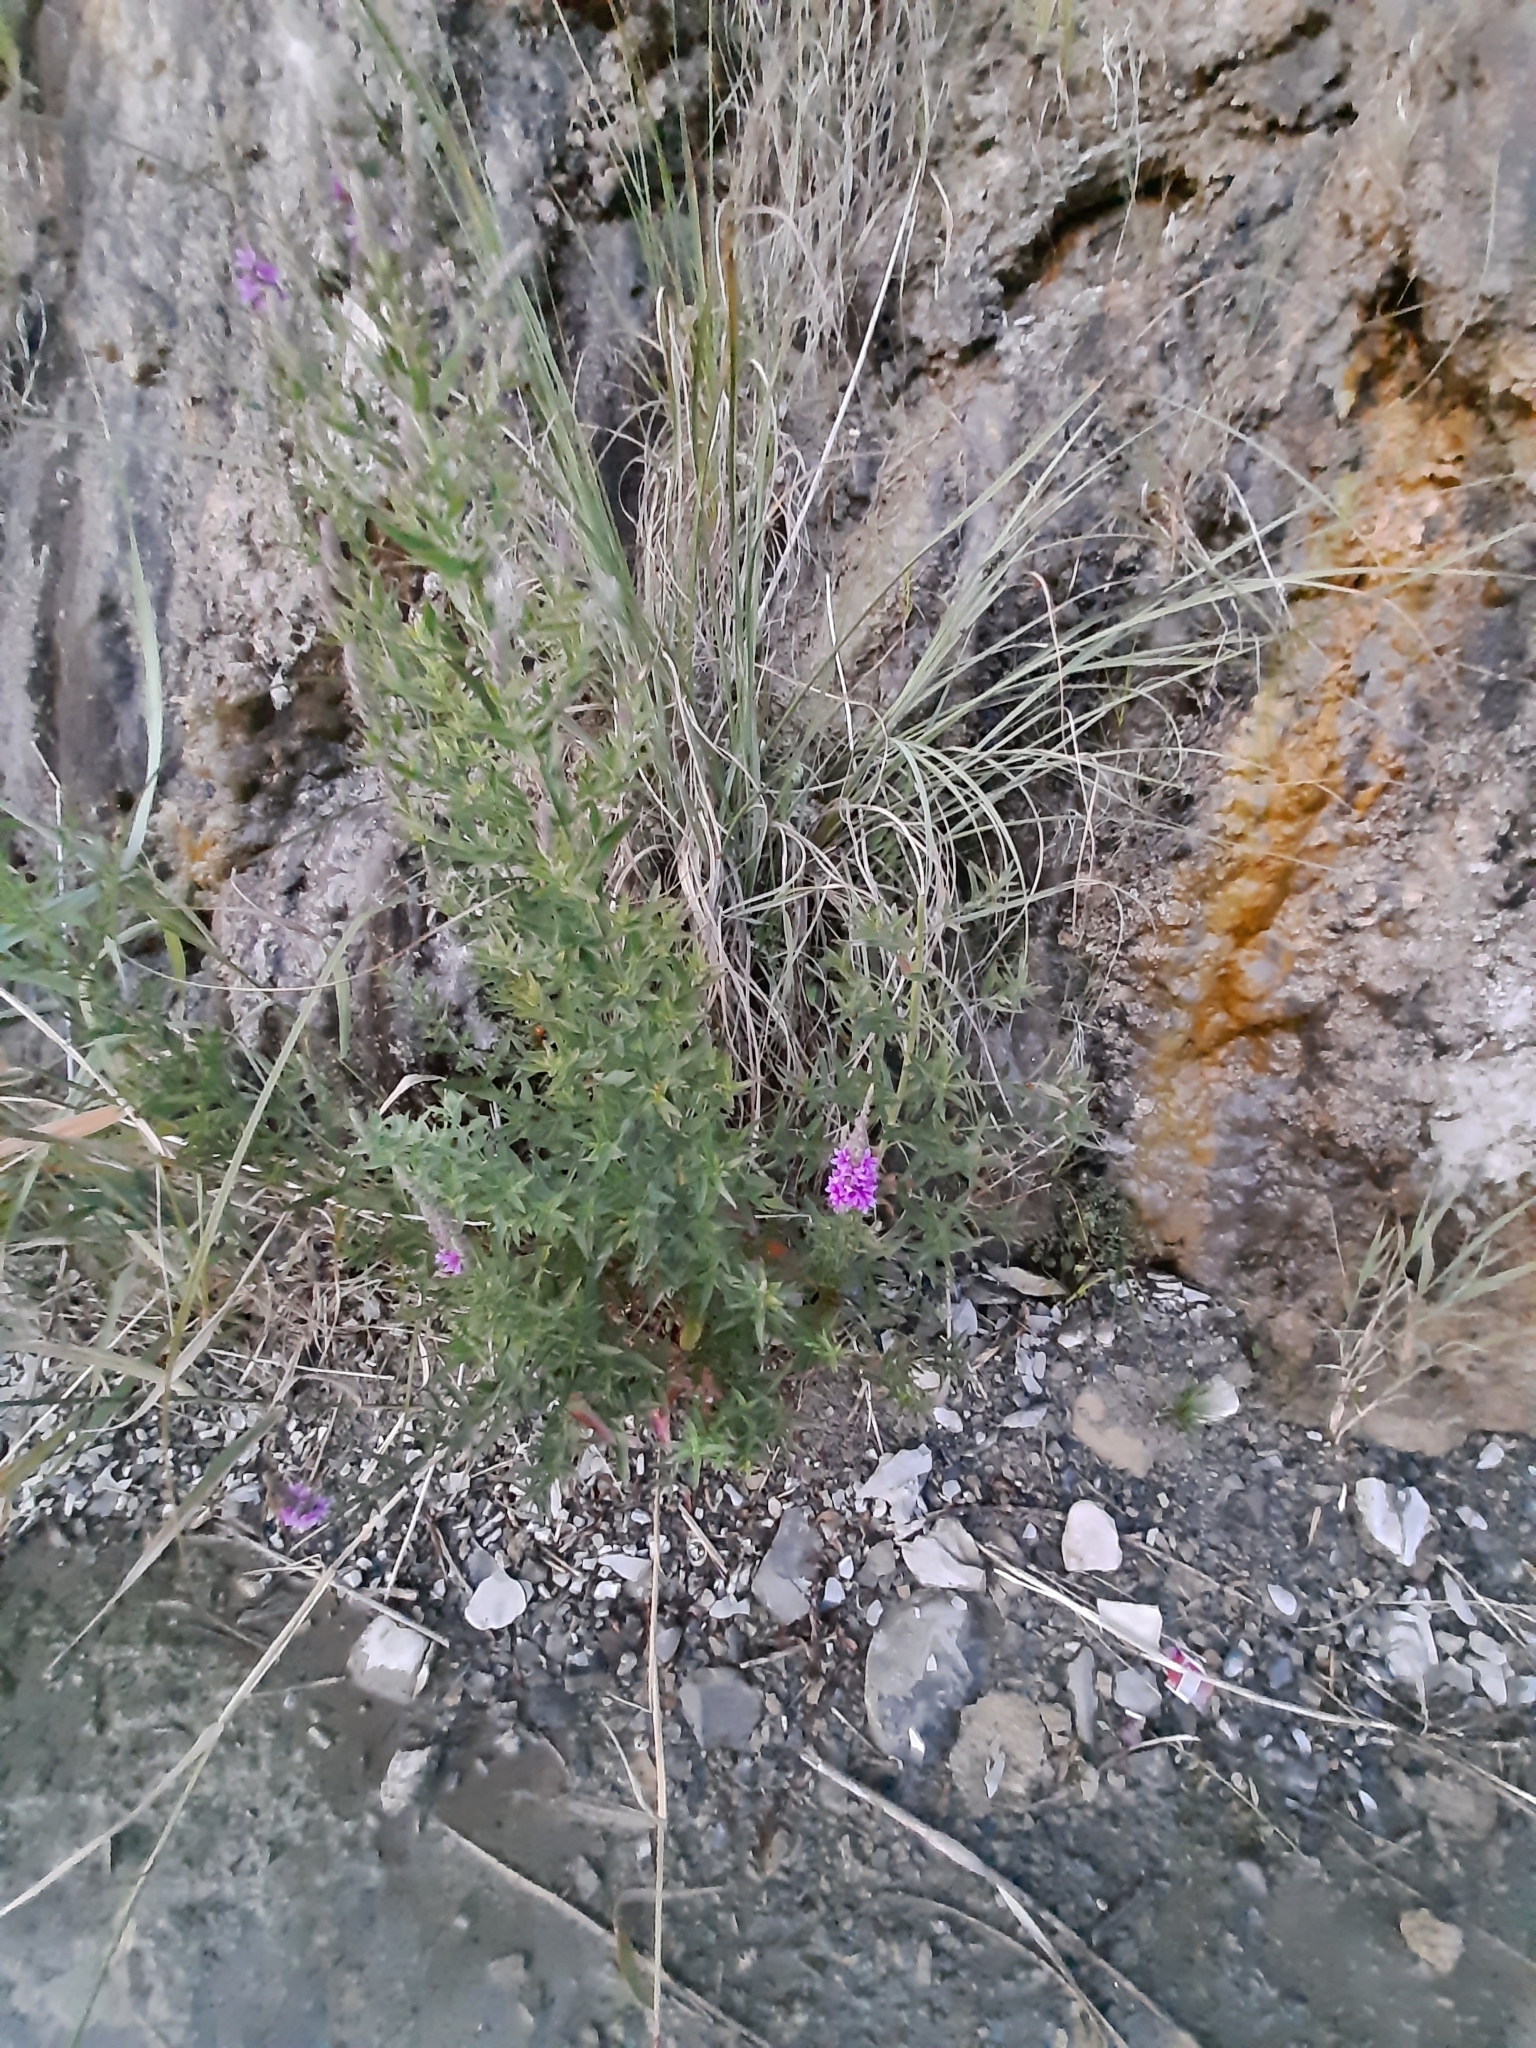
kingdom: Plantae
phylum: Tracheophyta
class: Magnoliopsida
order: Myrtales
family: Lythraceae
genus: Lythrum
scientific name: Lythrum salicaria
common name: Purple loosestrife
